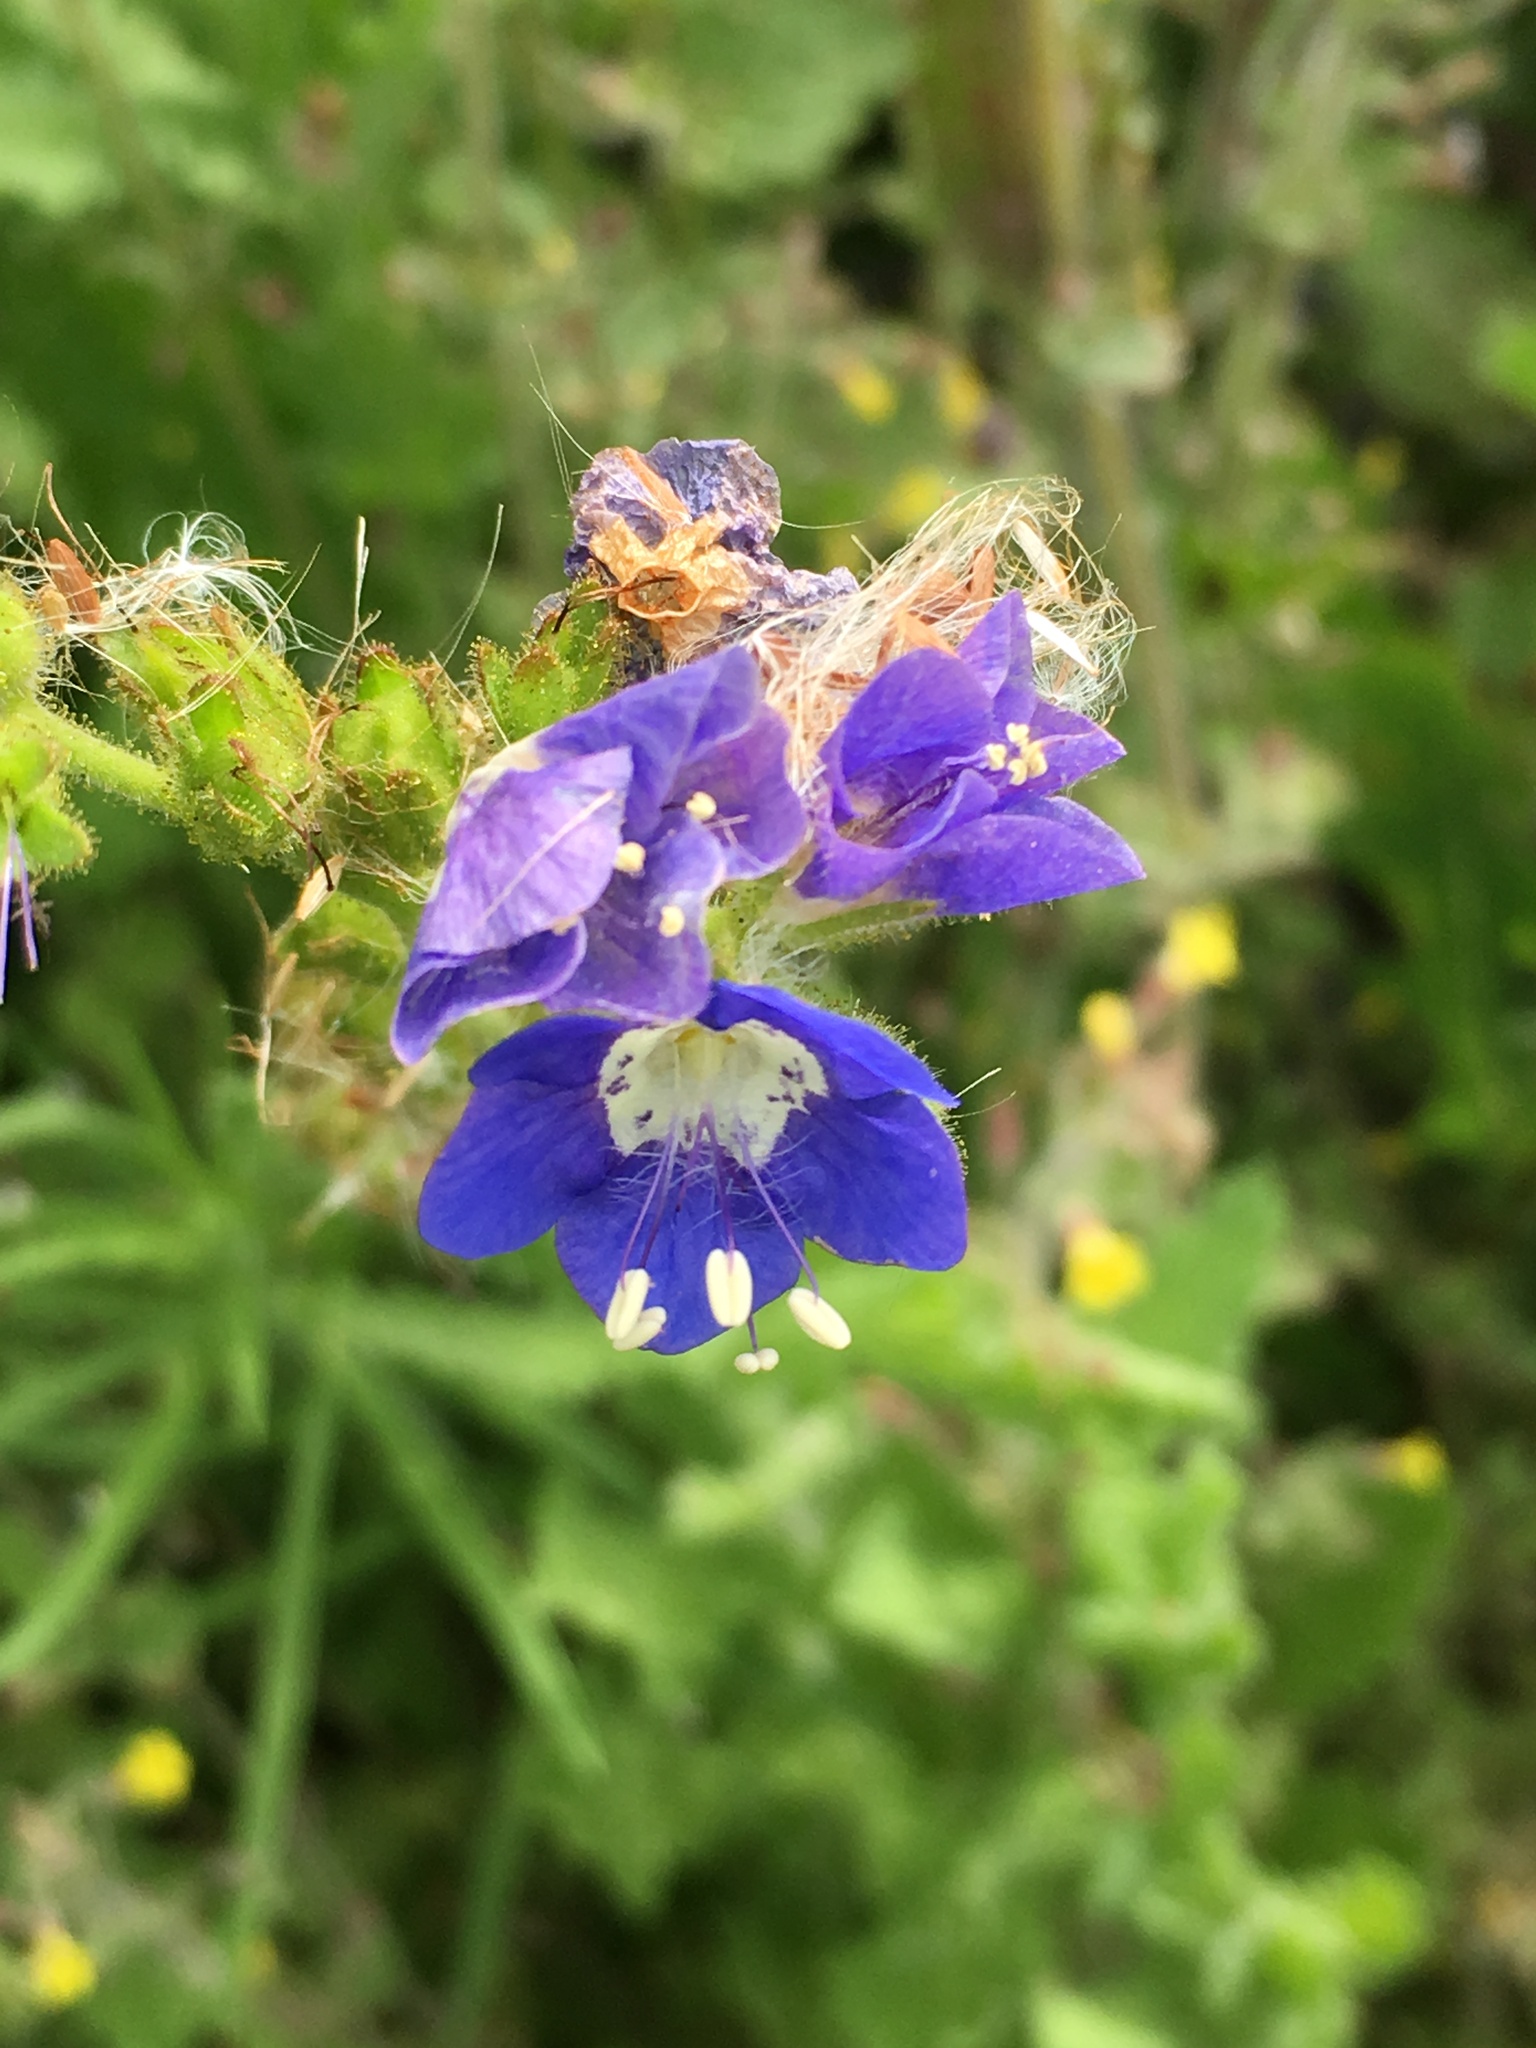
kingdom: Plantae
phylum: Tracheophyta
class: Magnoliopsida
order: Boraginales
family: Hydrophyllaceae
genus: Phacelia
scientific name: Phacelia viscida
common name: Sticky phacelia
